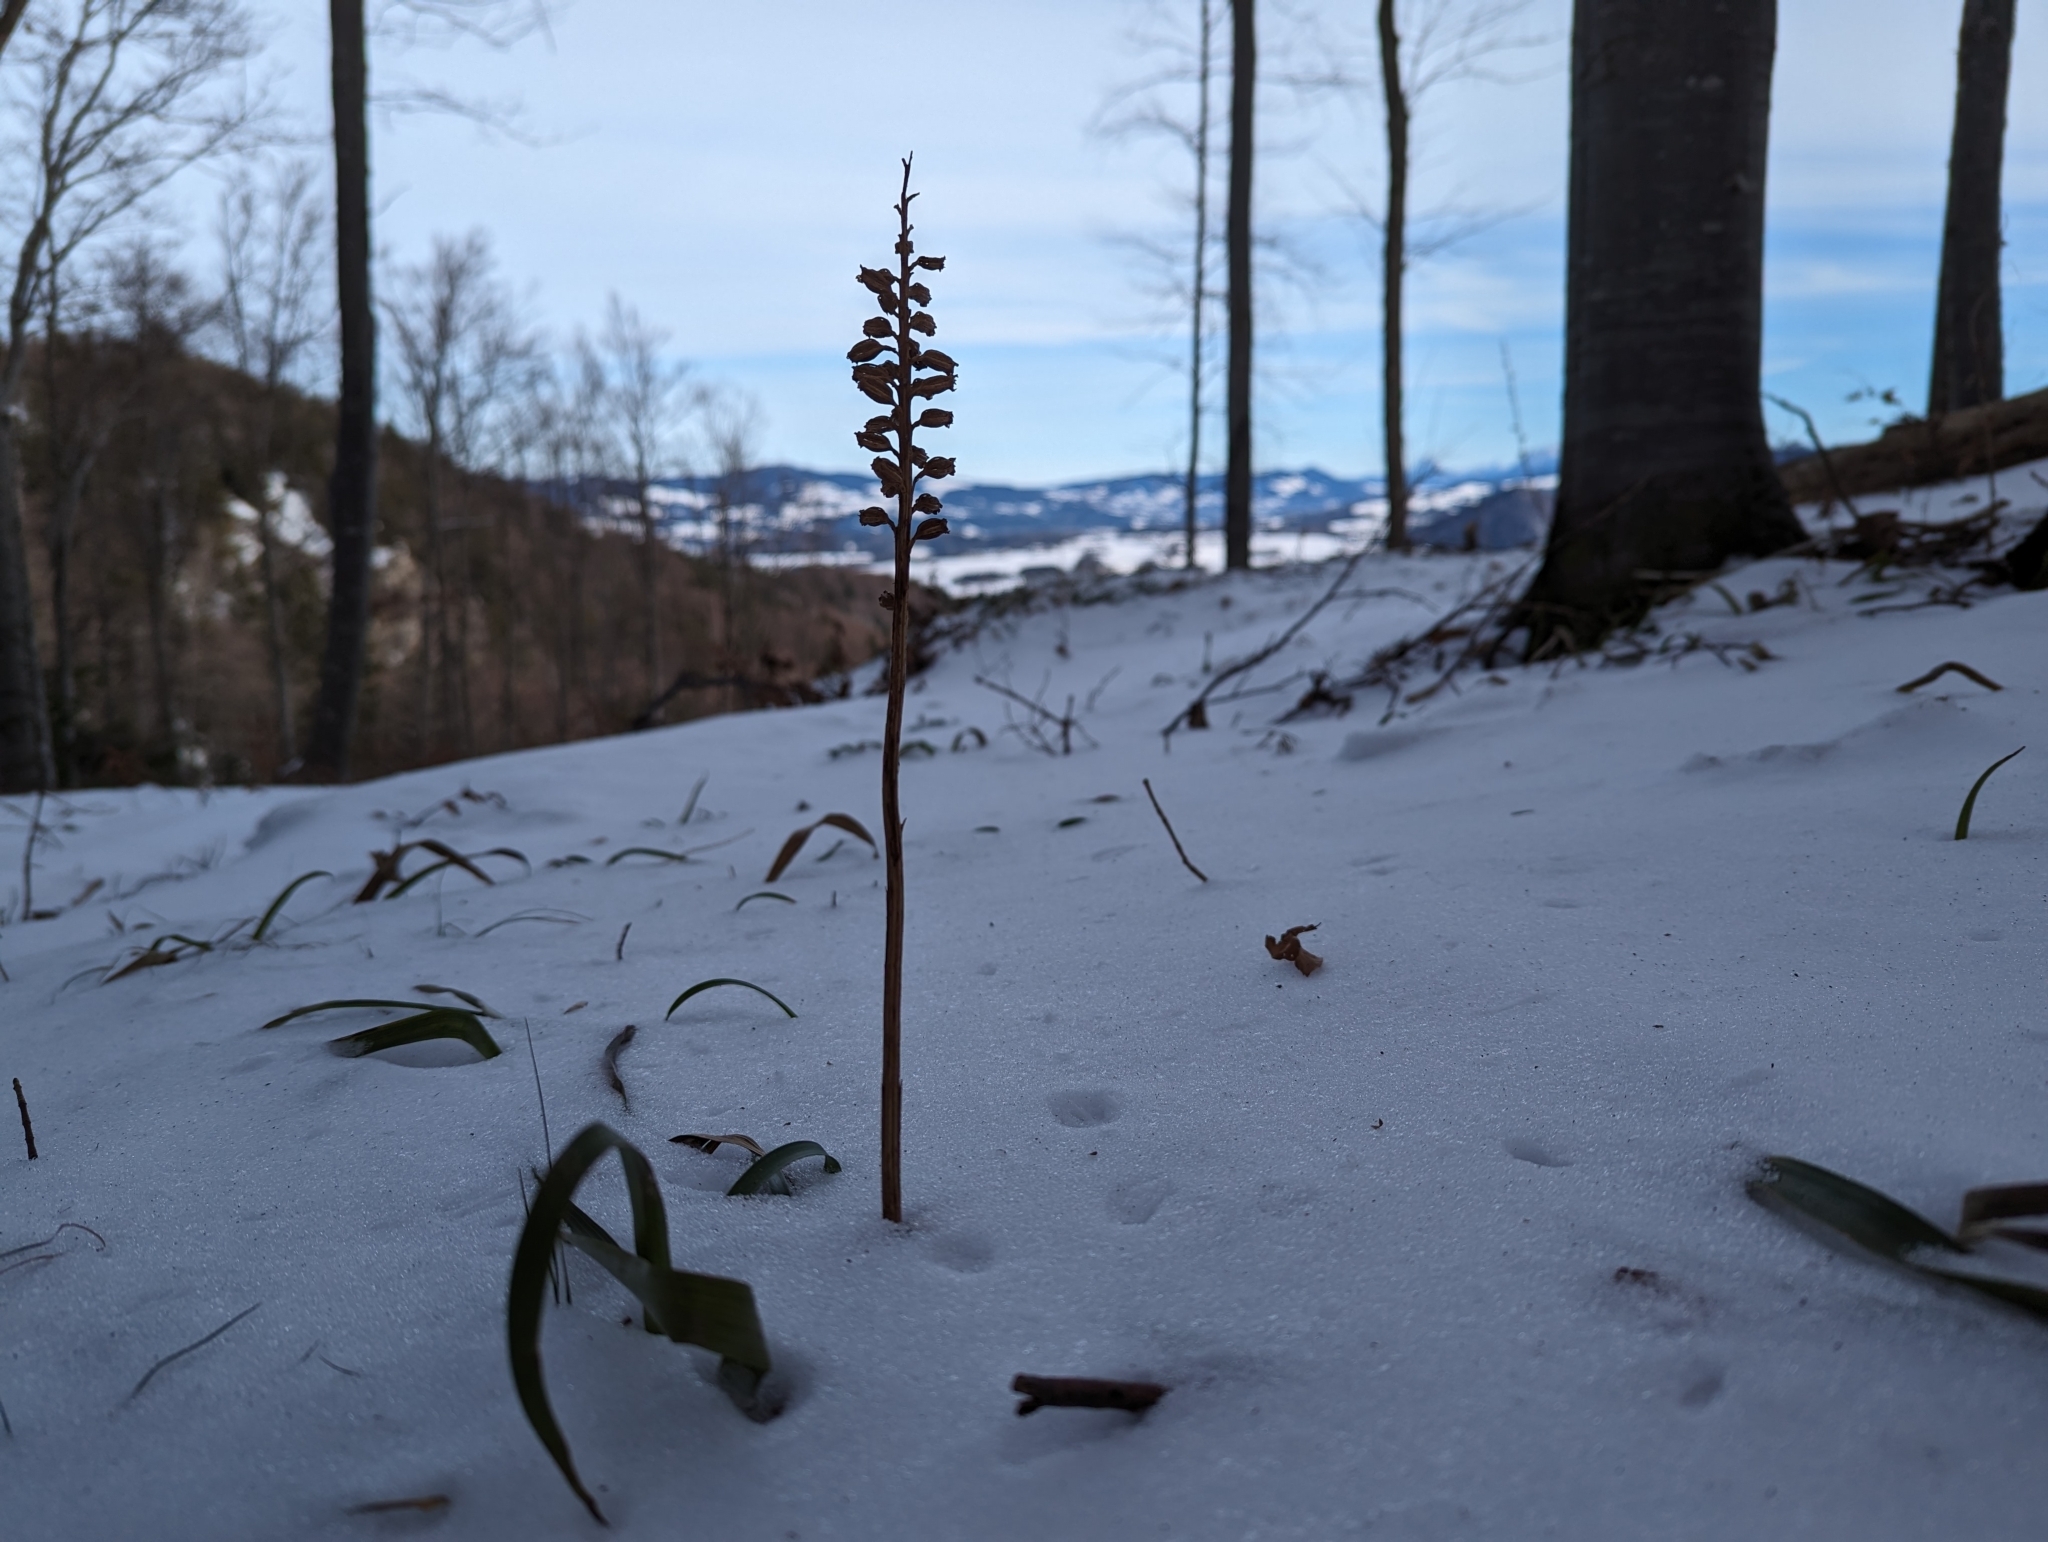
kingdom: Plantae
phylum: Tracheophyta
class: Liliopsida
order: Asparagales
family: Orchidaceae
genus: Neottia
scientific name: Neottia nidus-avis
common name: Bird's-nest orchid
